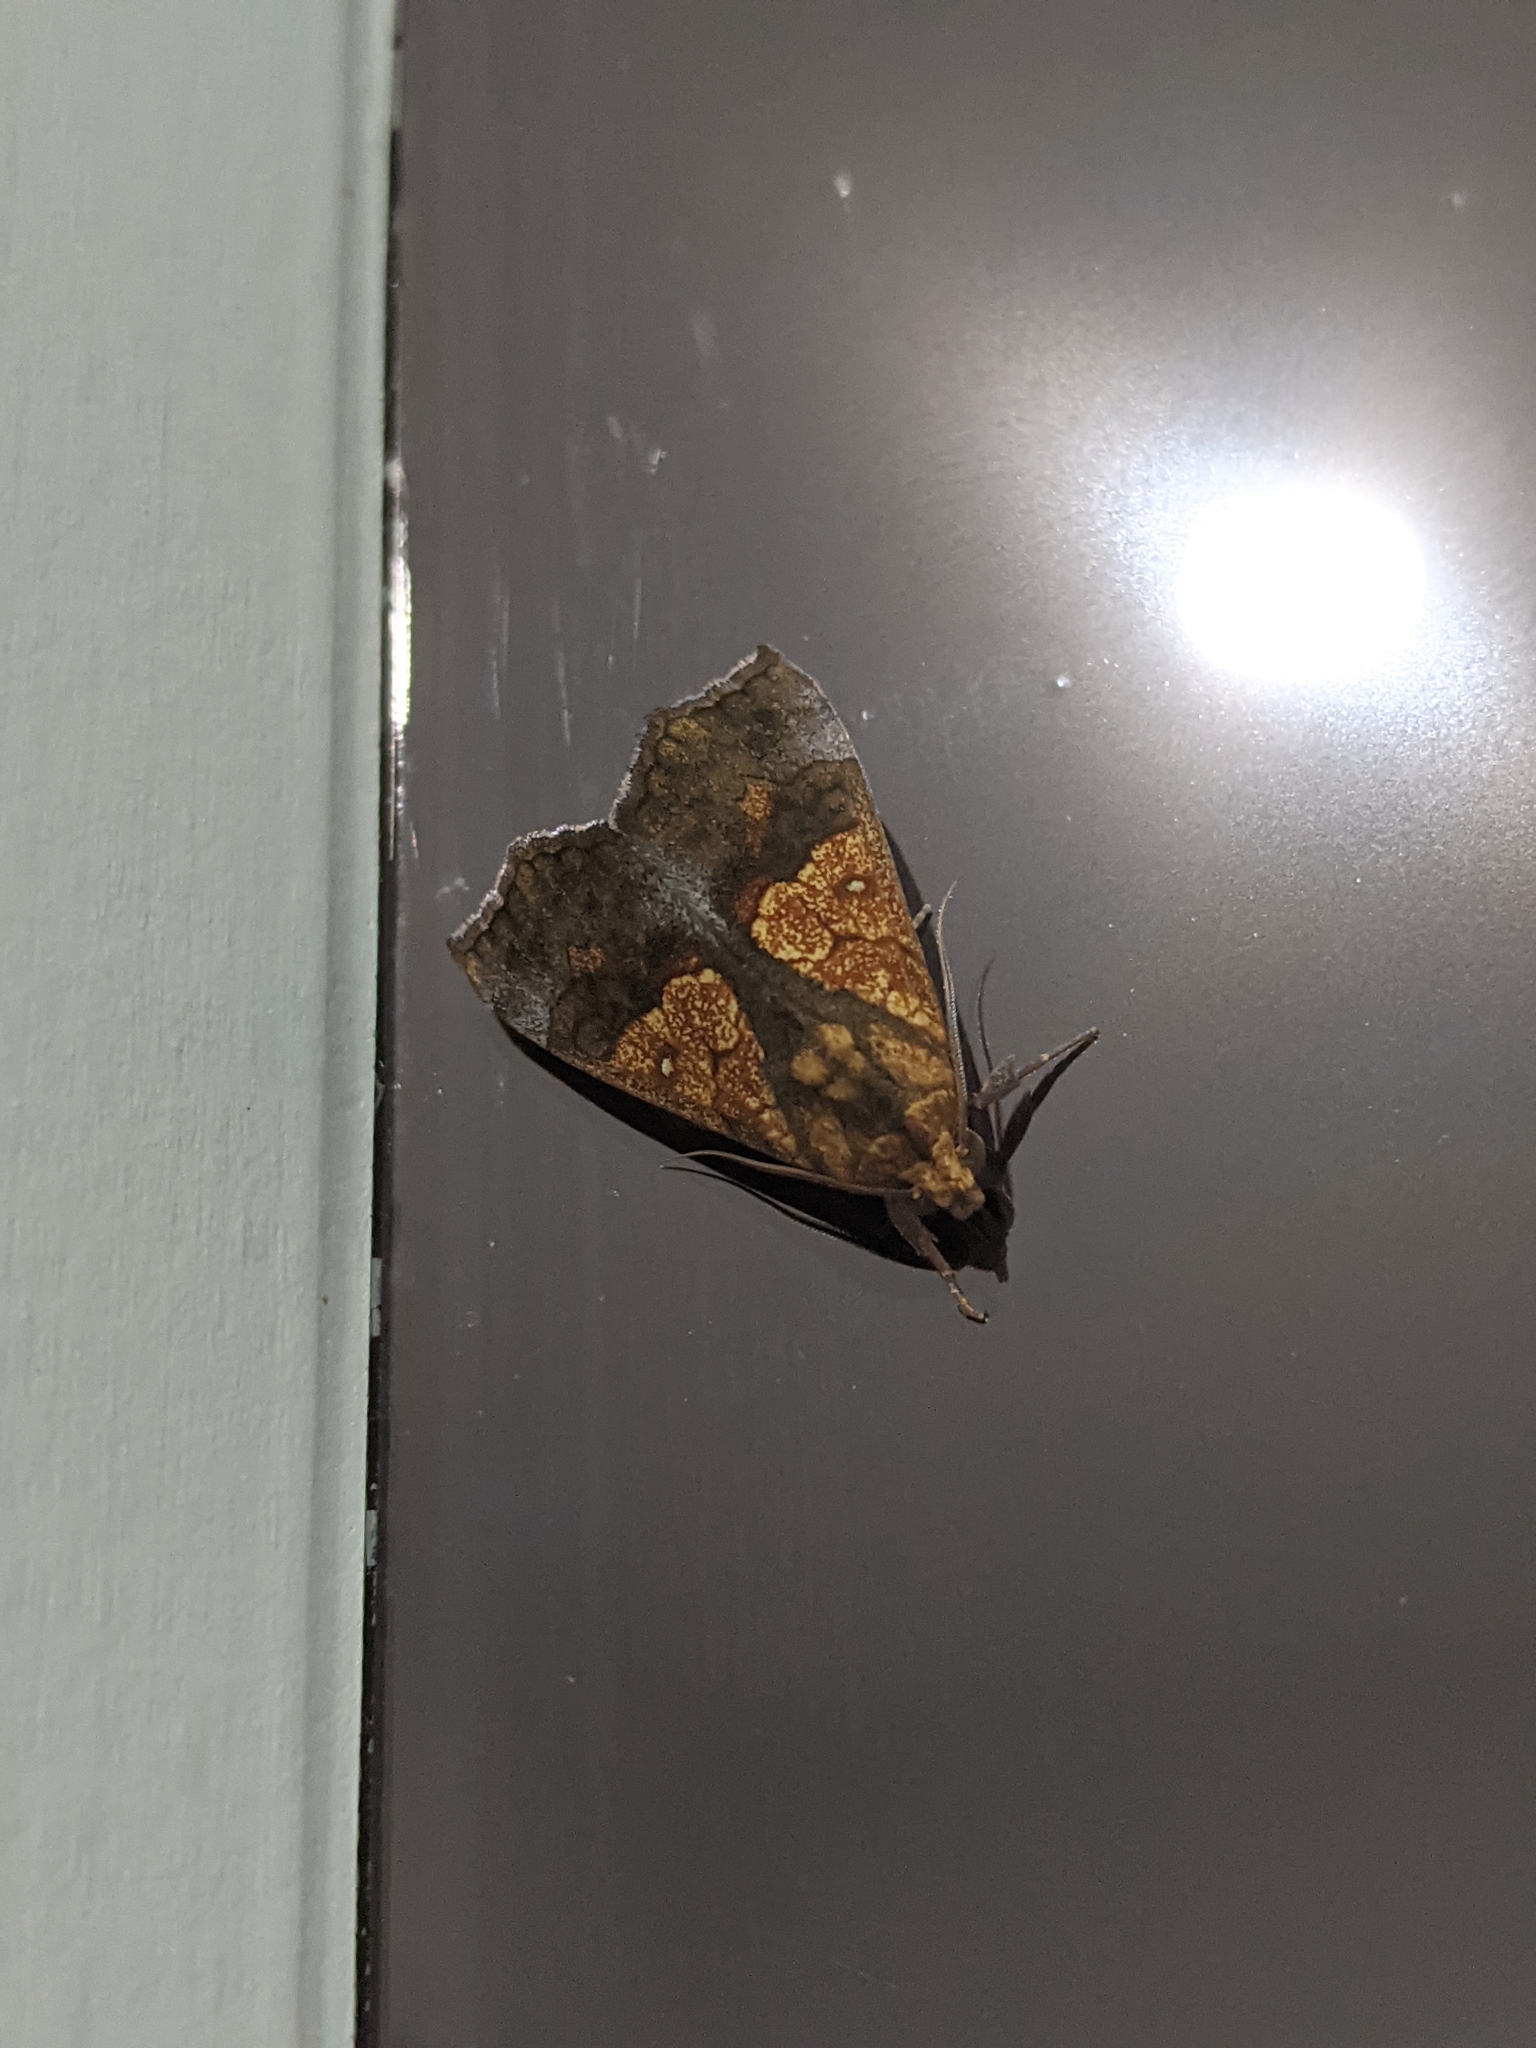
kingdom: Animalia
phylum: Arthropoda
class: Insecta
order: Lepidoptera
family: Erebidae
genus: Anomis
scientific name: Anomis flava
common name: Moth
